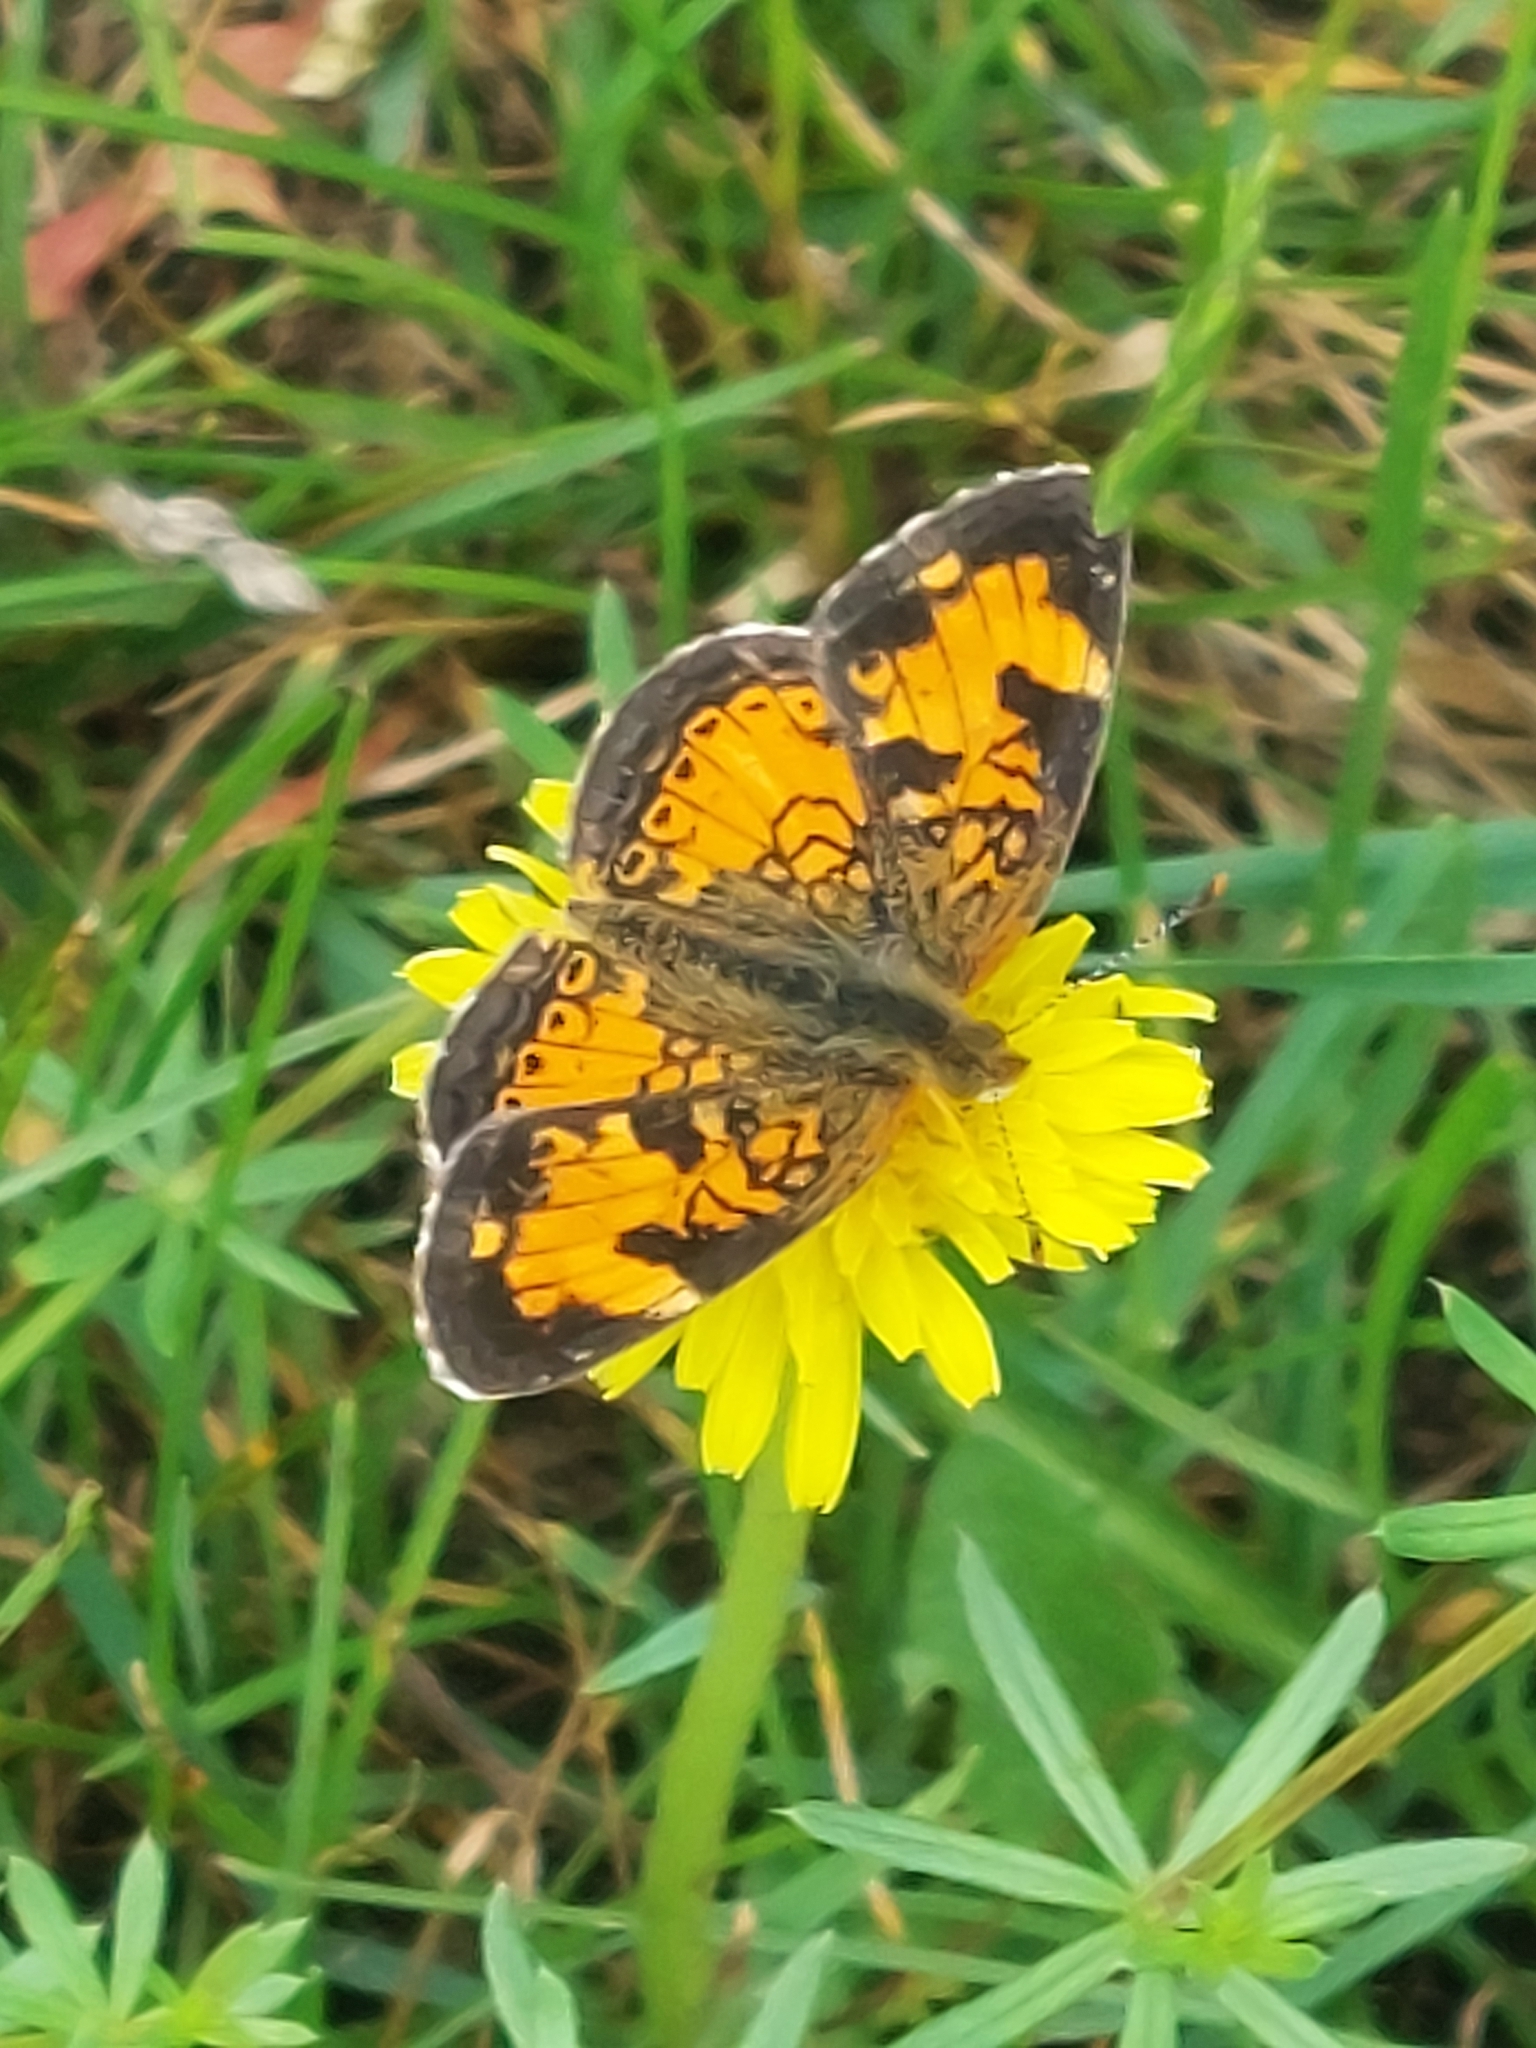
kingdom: Animalia
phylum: Arthropoda
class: Insecta
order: Lepidoptera
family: Nymphalidae
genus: Phyciodes
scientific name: Phyciodes tharos
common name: Pearl crescent
